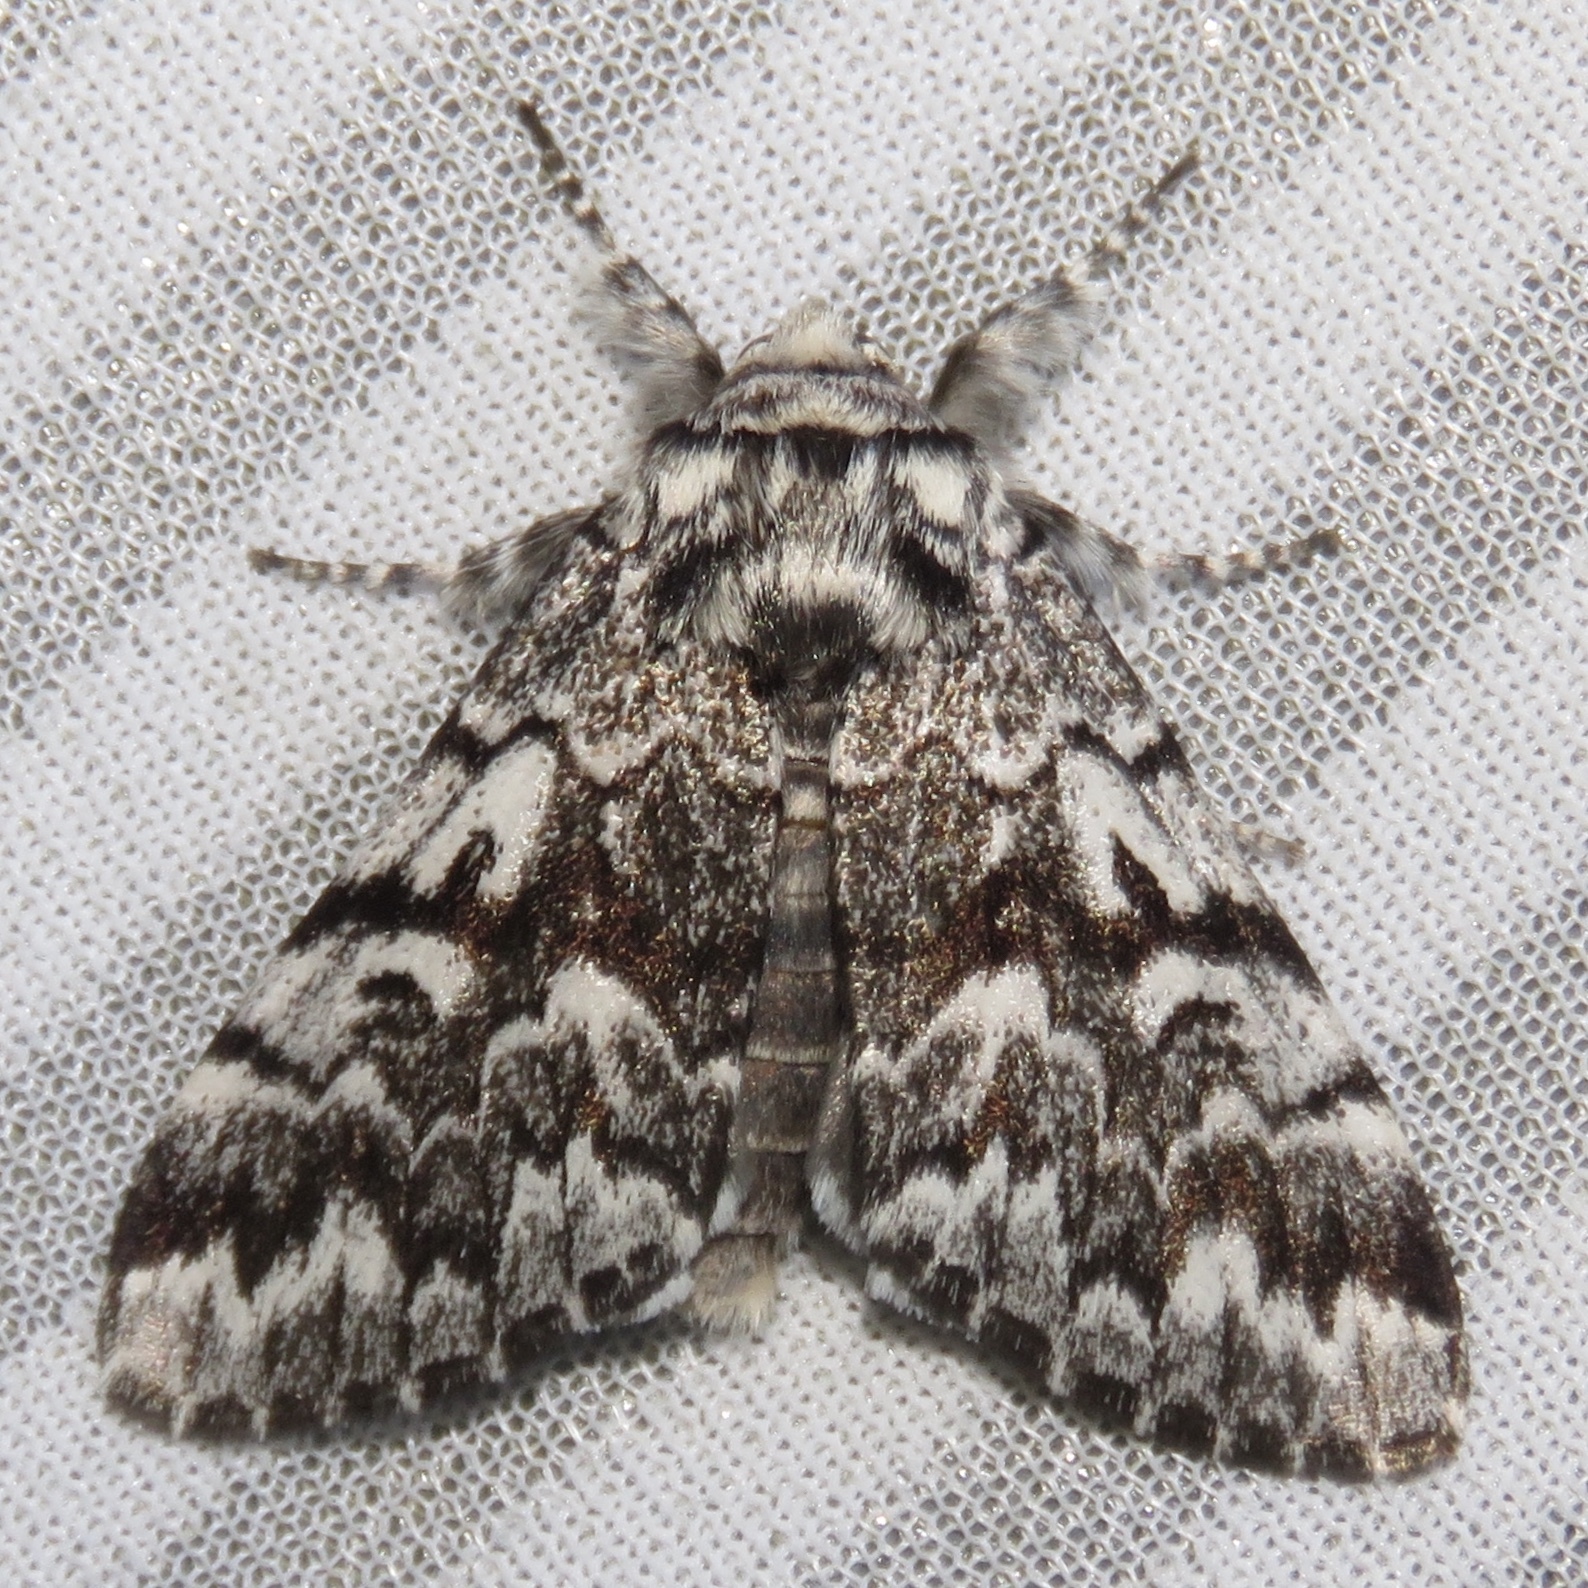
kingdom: Animalia
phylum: Arthropoda
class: Insecta
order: Lepidoptera
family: Noctuidae
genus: Panthea
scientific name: Panthea acronyctoides
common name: Black zigzag moth
